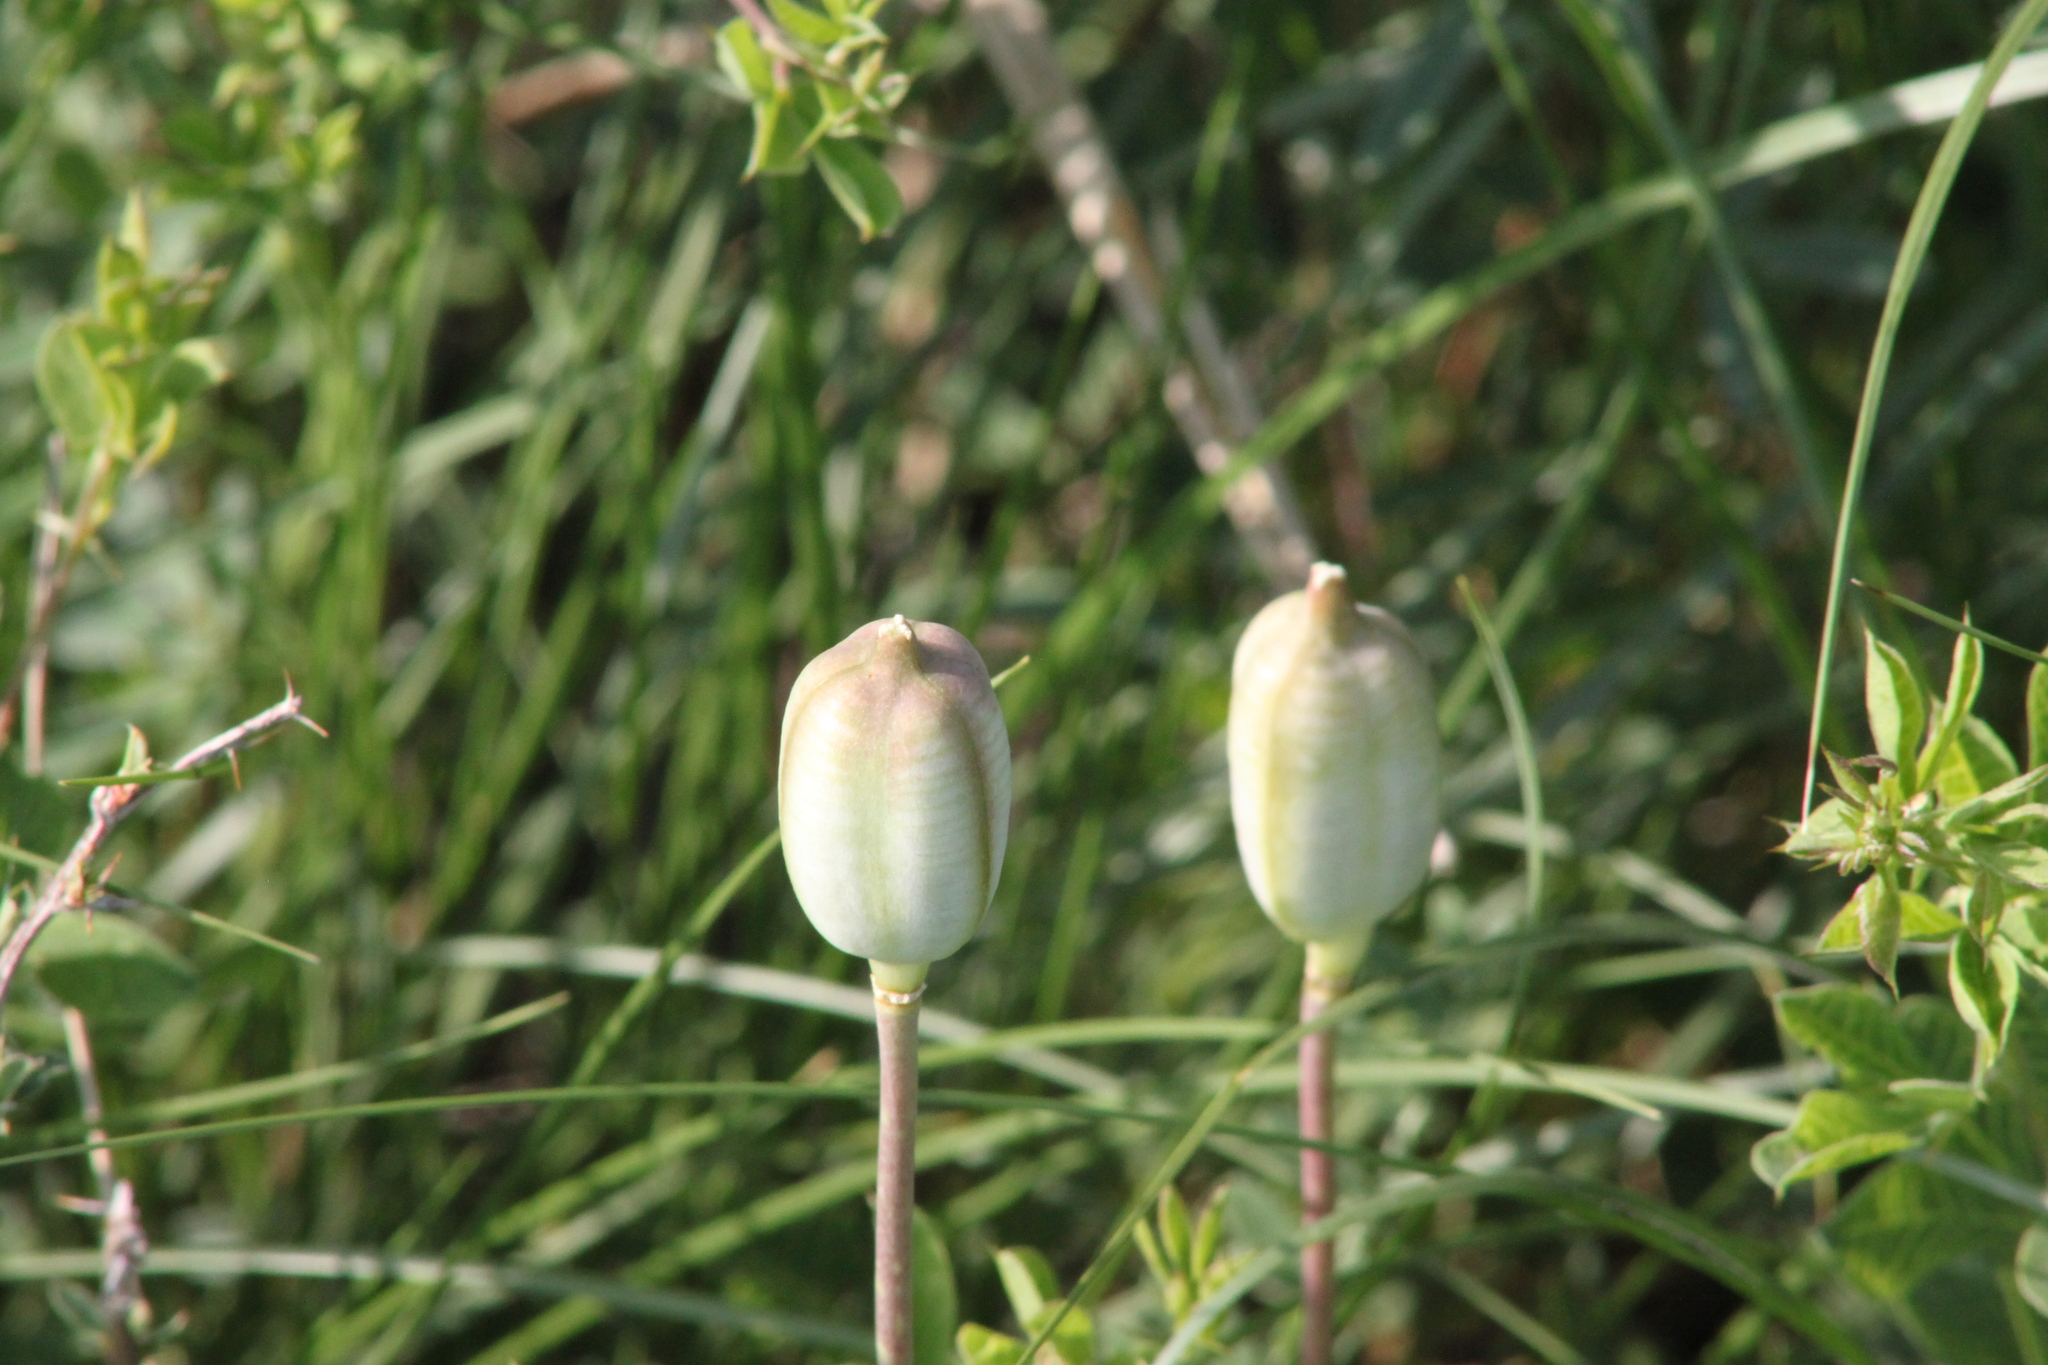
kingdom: Plantae
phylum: Tracheophyta
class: Liliopsida
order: Liliales
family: Liliaceae
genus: Tulipa
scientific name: Tulipa patens
